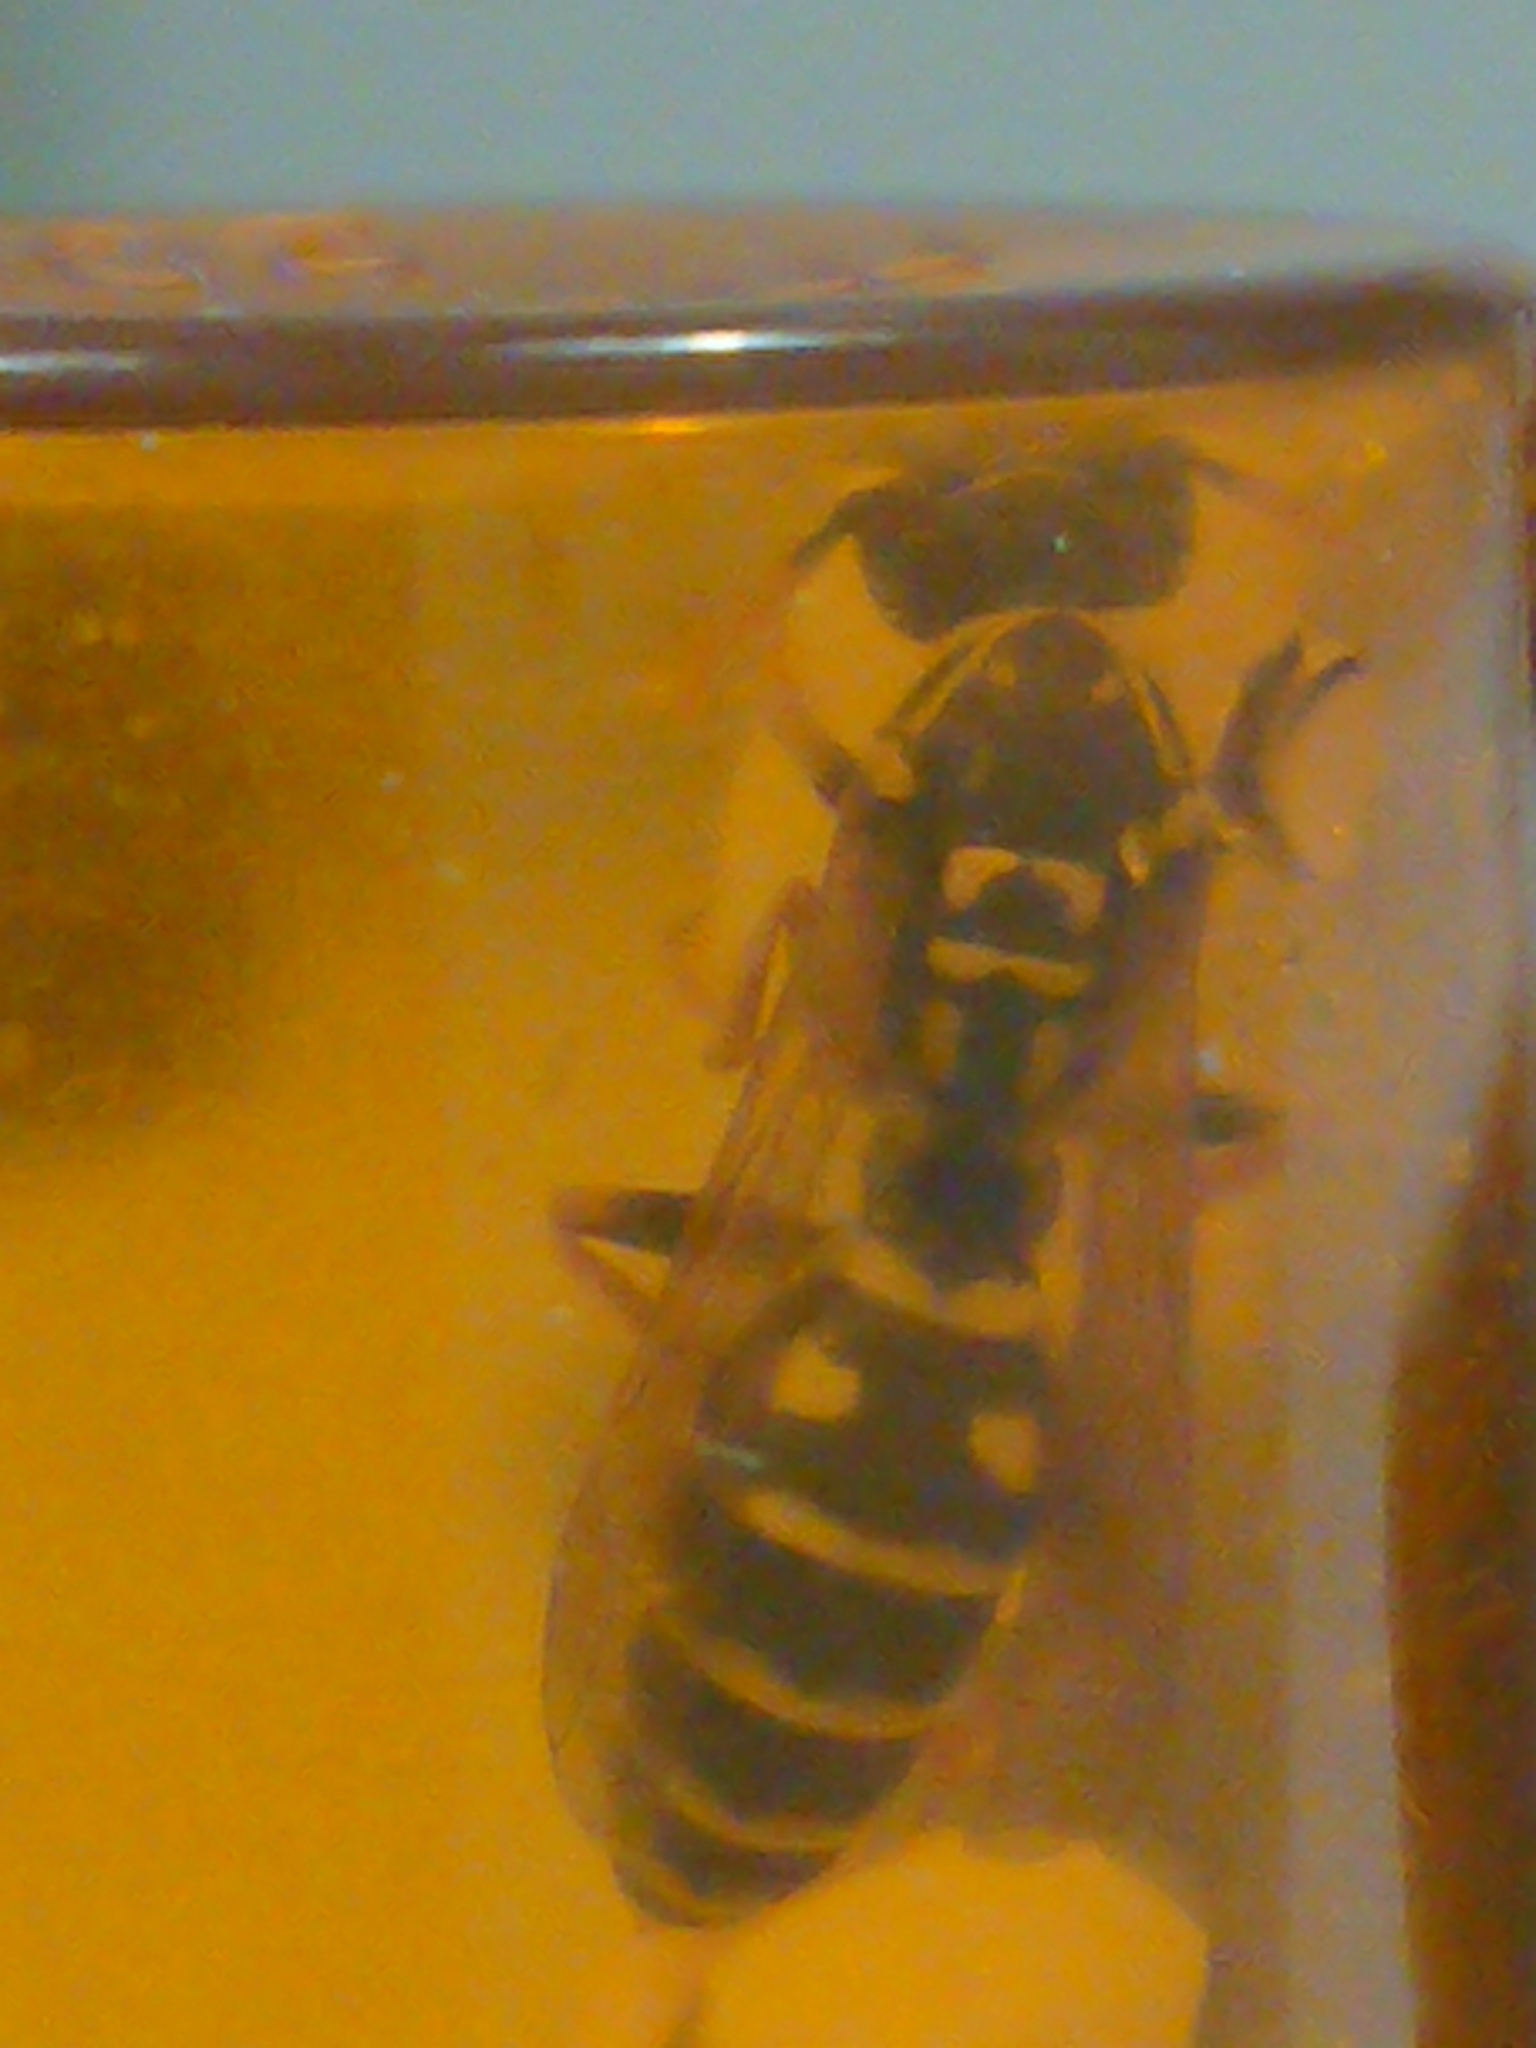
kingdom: Animalia
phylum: Arthropoda
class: Insecta
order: Hymenoptera
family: Eumenidae
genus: Polistes
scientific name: Polistes dominula
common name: Paper wasp
